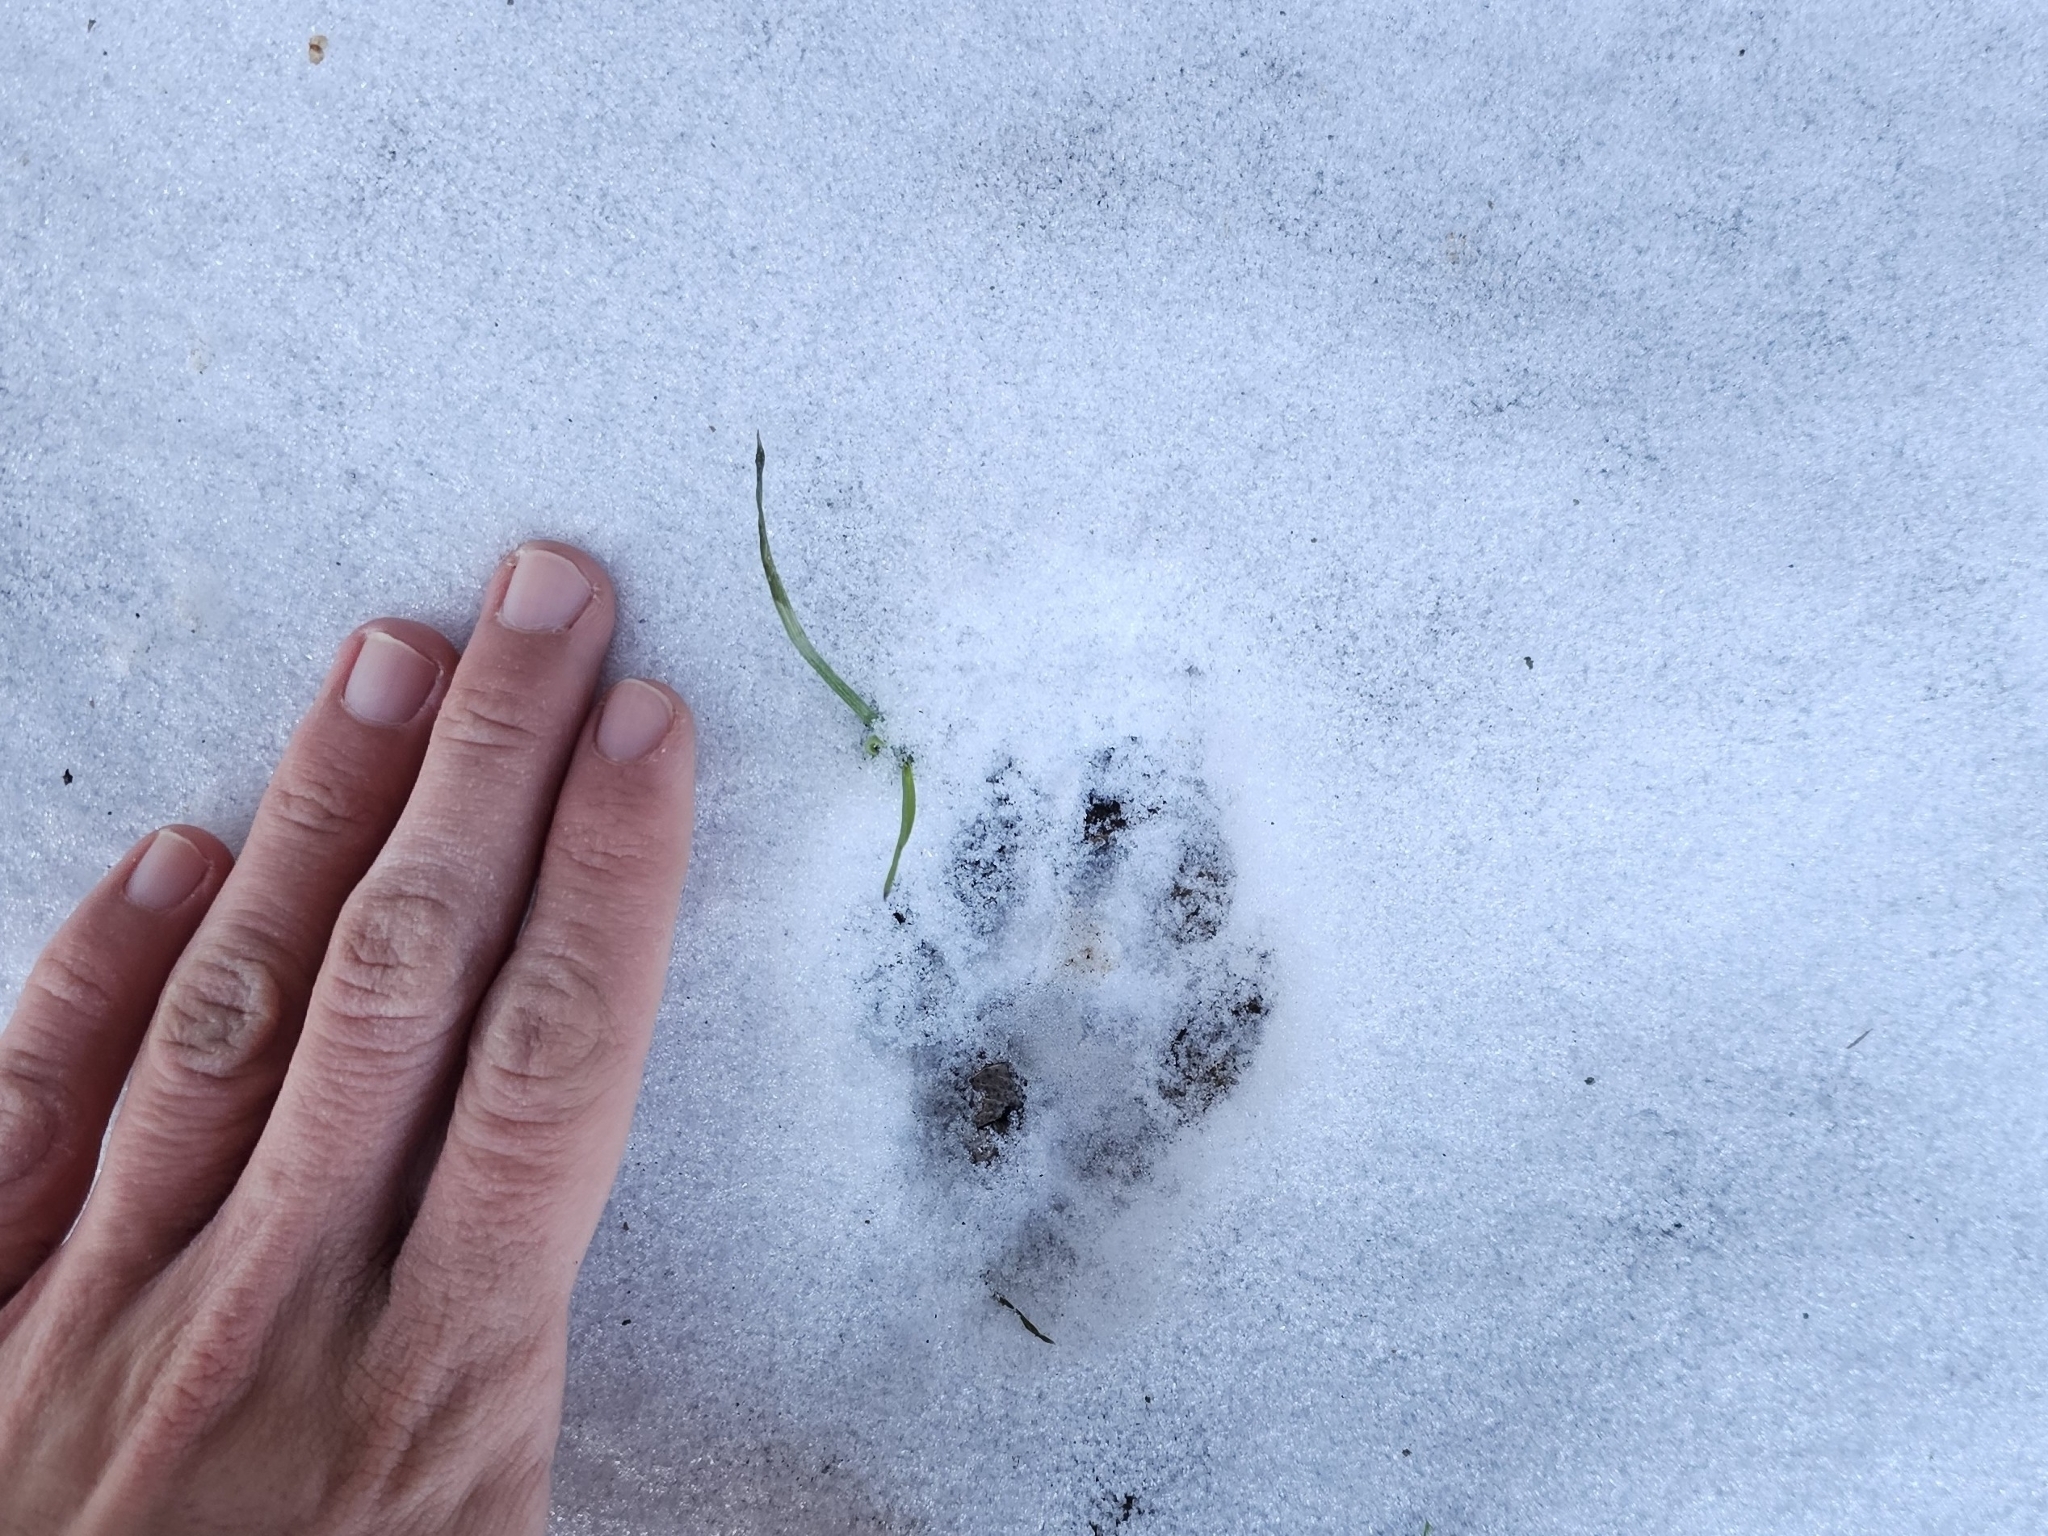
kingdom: Animalia
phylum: Chordata
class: Mammalia
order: Carnivora
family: Procyonidae
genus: Procyon
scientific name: Procyon lotor
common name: Raccoon
